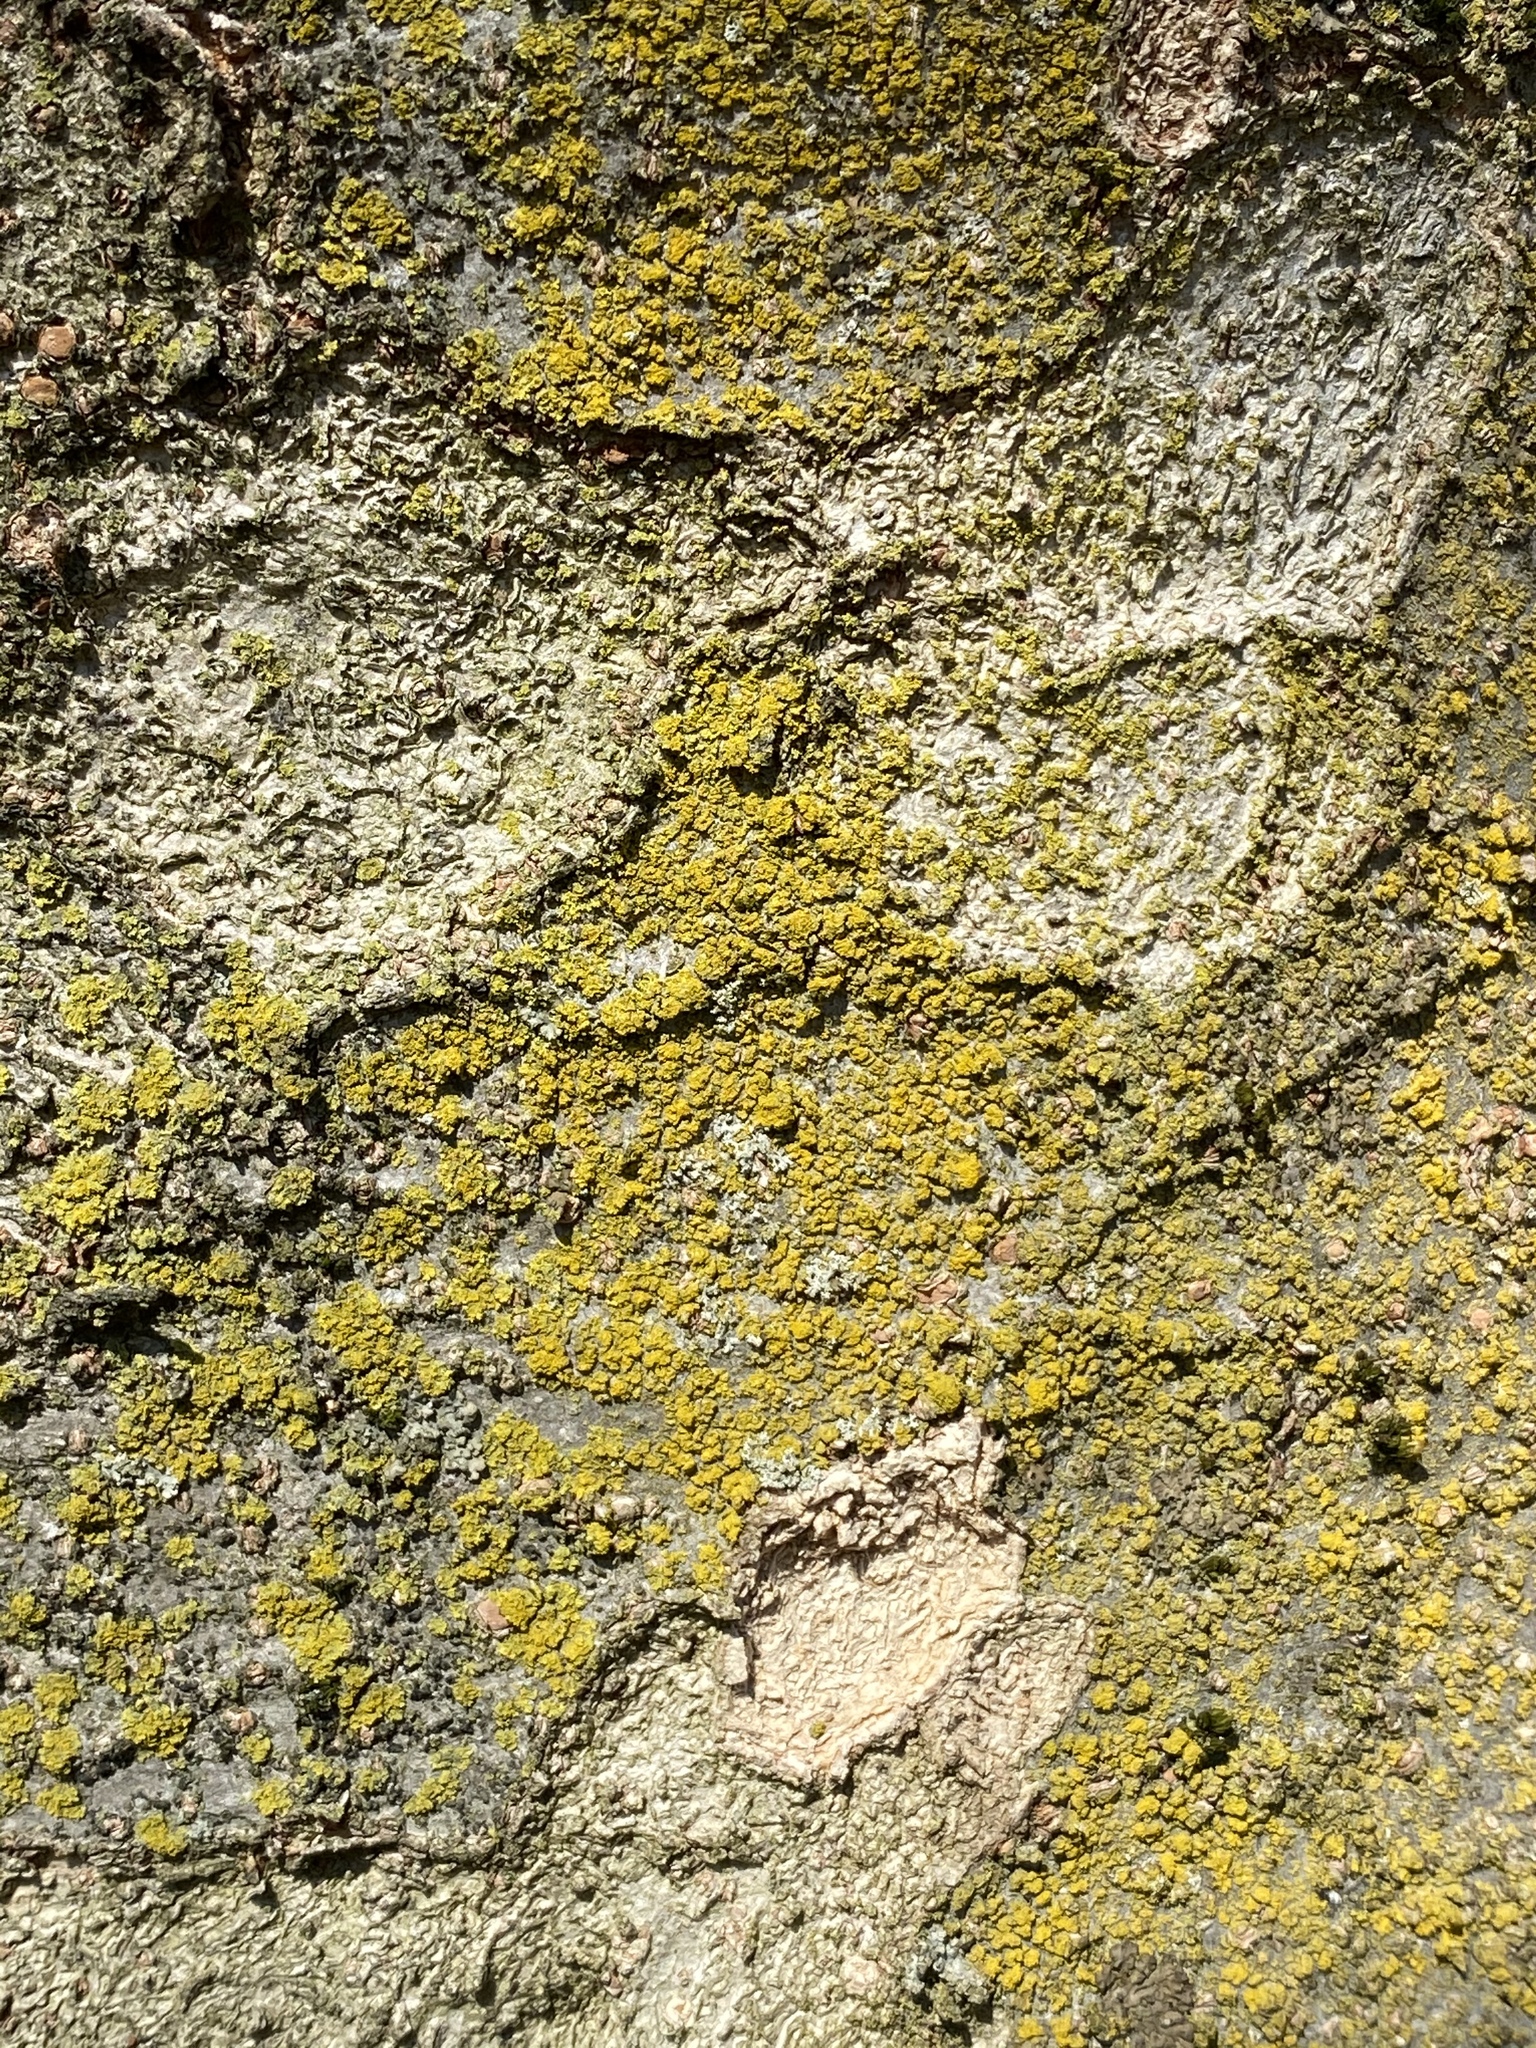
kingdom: Fungi
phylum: Ascomycota
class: Candelariomycetes
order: Candelariales
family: Candelariaceae
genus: Candelaria
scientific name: Candelaria concolor
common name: Candleflame lichen
